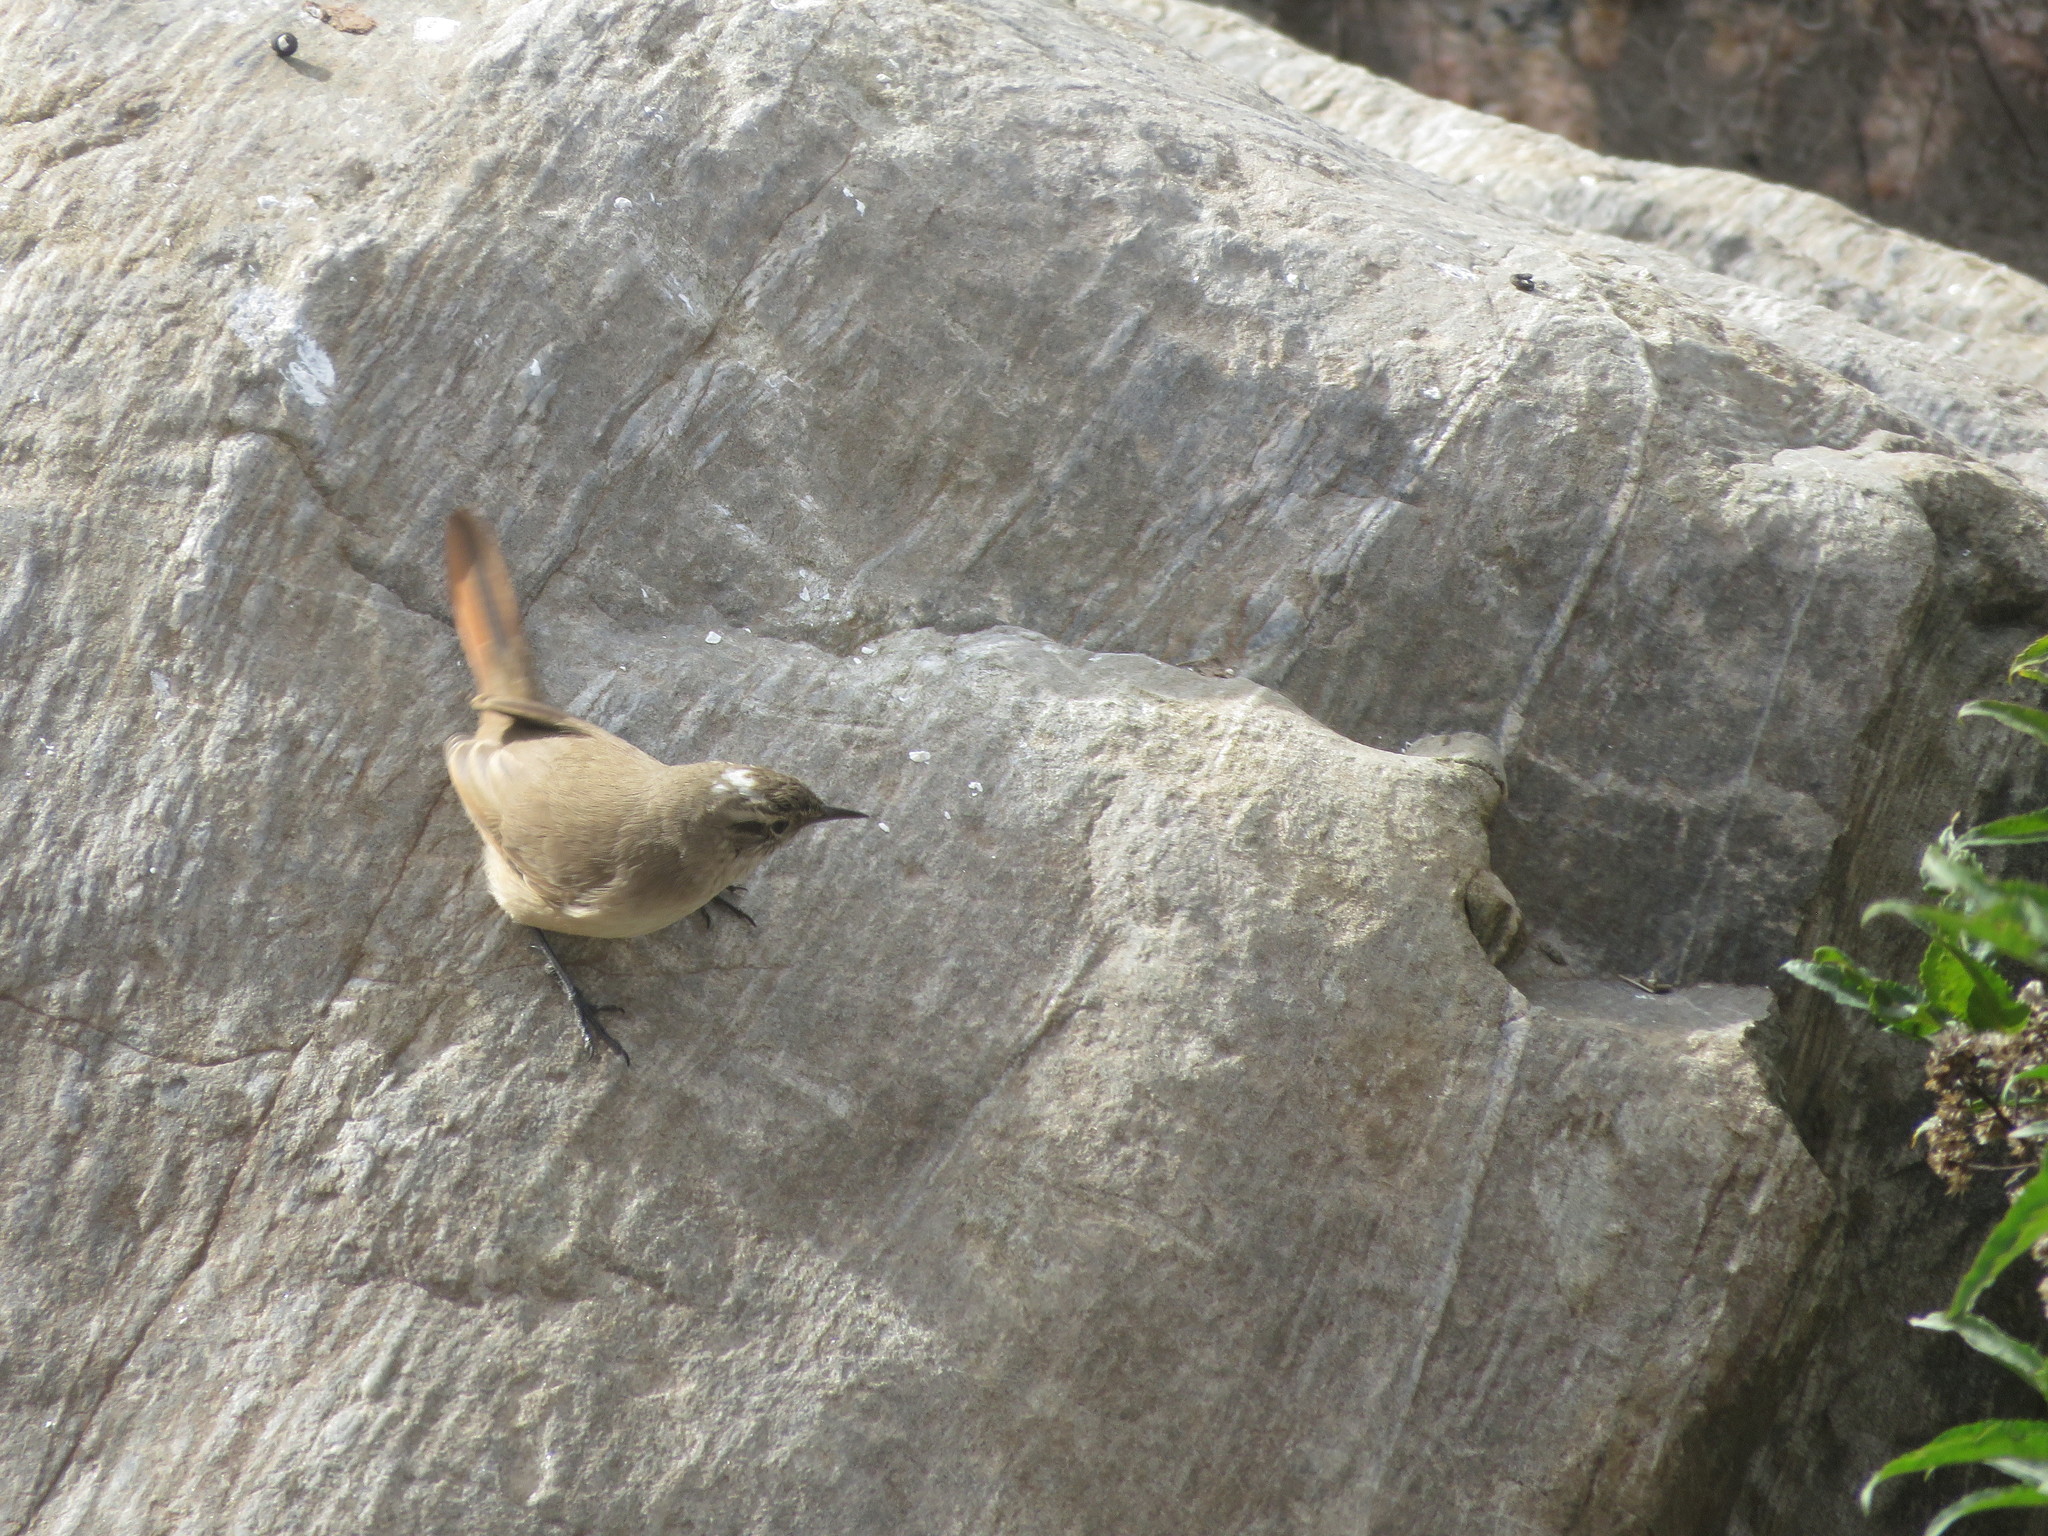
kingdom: Animalia
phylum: Chordata
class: Aves
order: Passeriformes
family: Furnariidae
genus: Asthenes
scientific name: Asthenes modesta
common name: Cordilleran canastero
